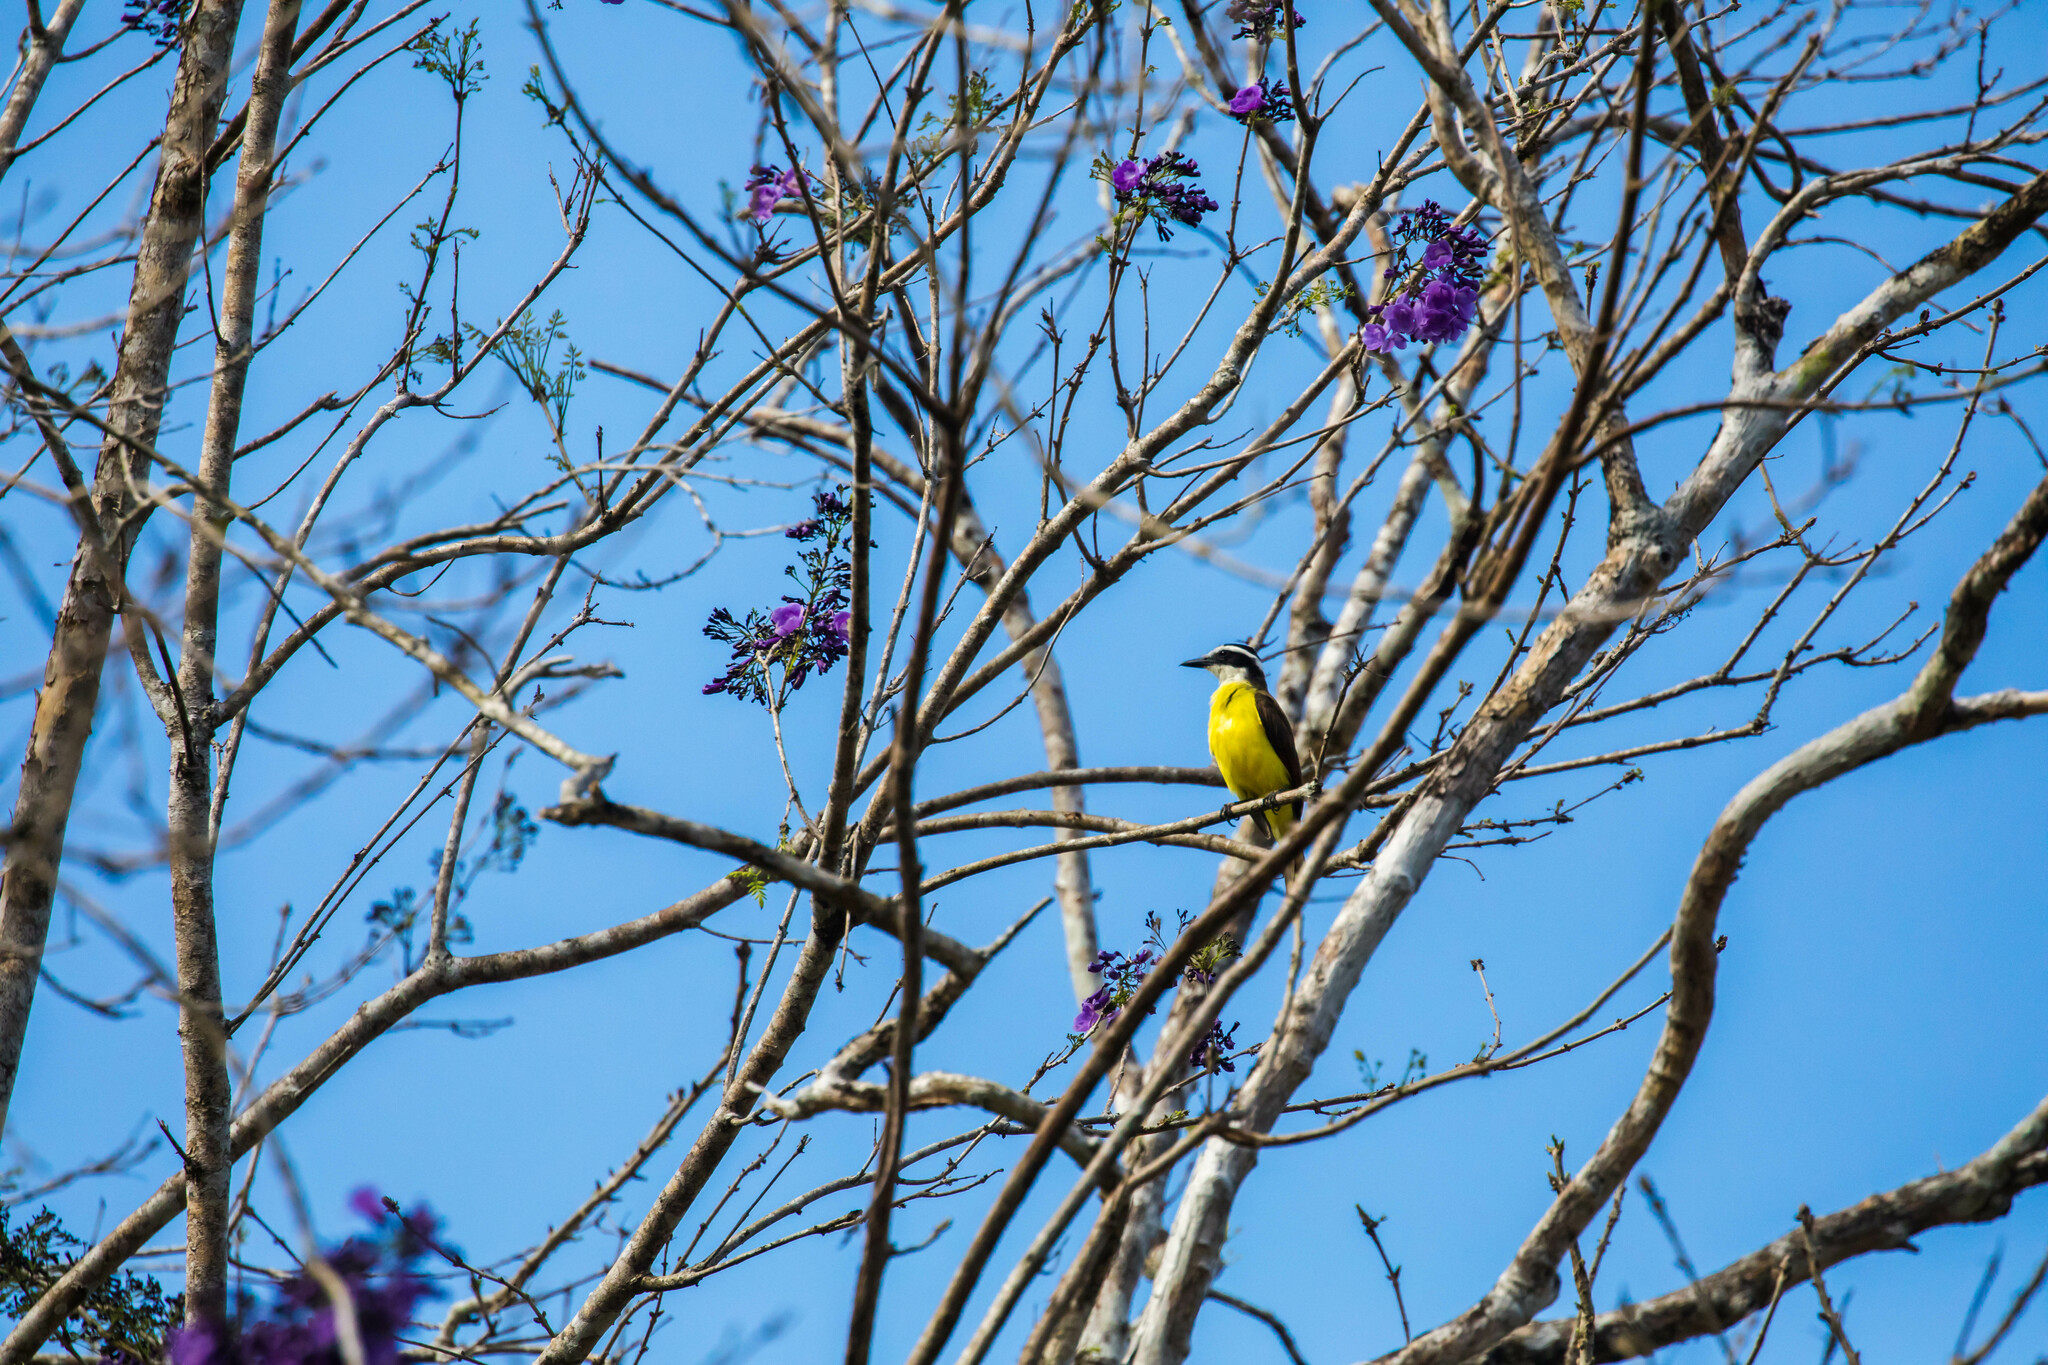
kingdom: Animalia
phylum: Chordata
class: Aves
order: Passeriformes
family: Tyrannidae
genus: Pitangus
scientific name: Pitangus sulphuratus
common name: Great kiskadee
